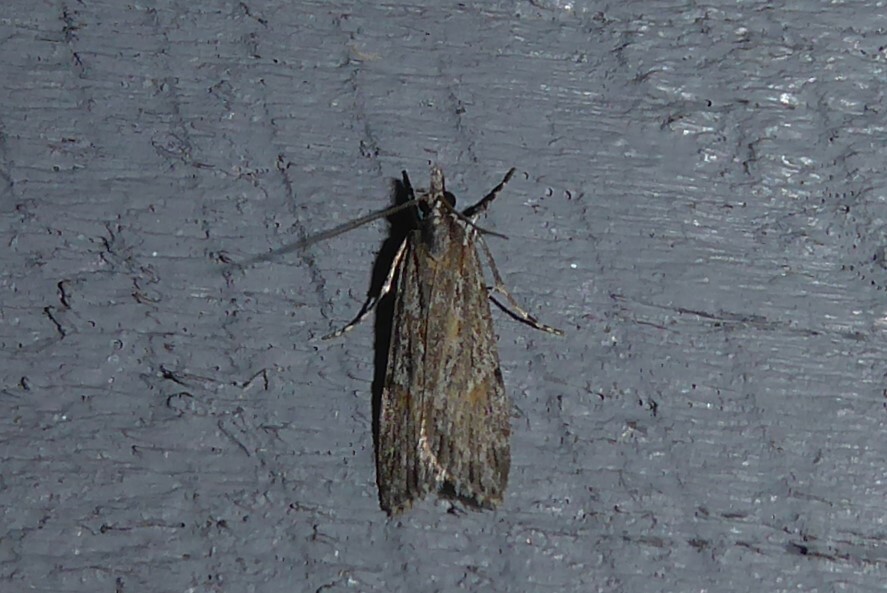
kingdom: Animalia
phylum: Arthropoda
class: Insecta
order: Lepidoptera
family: Crambidae
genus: Scoparia
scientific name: Scoparia chalicodes
